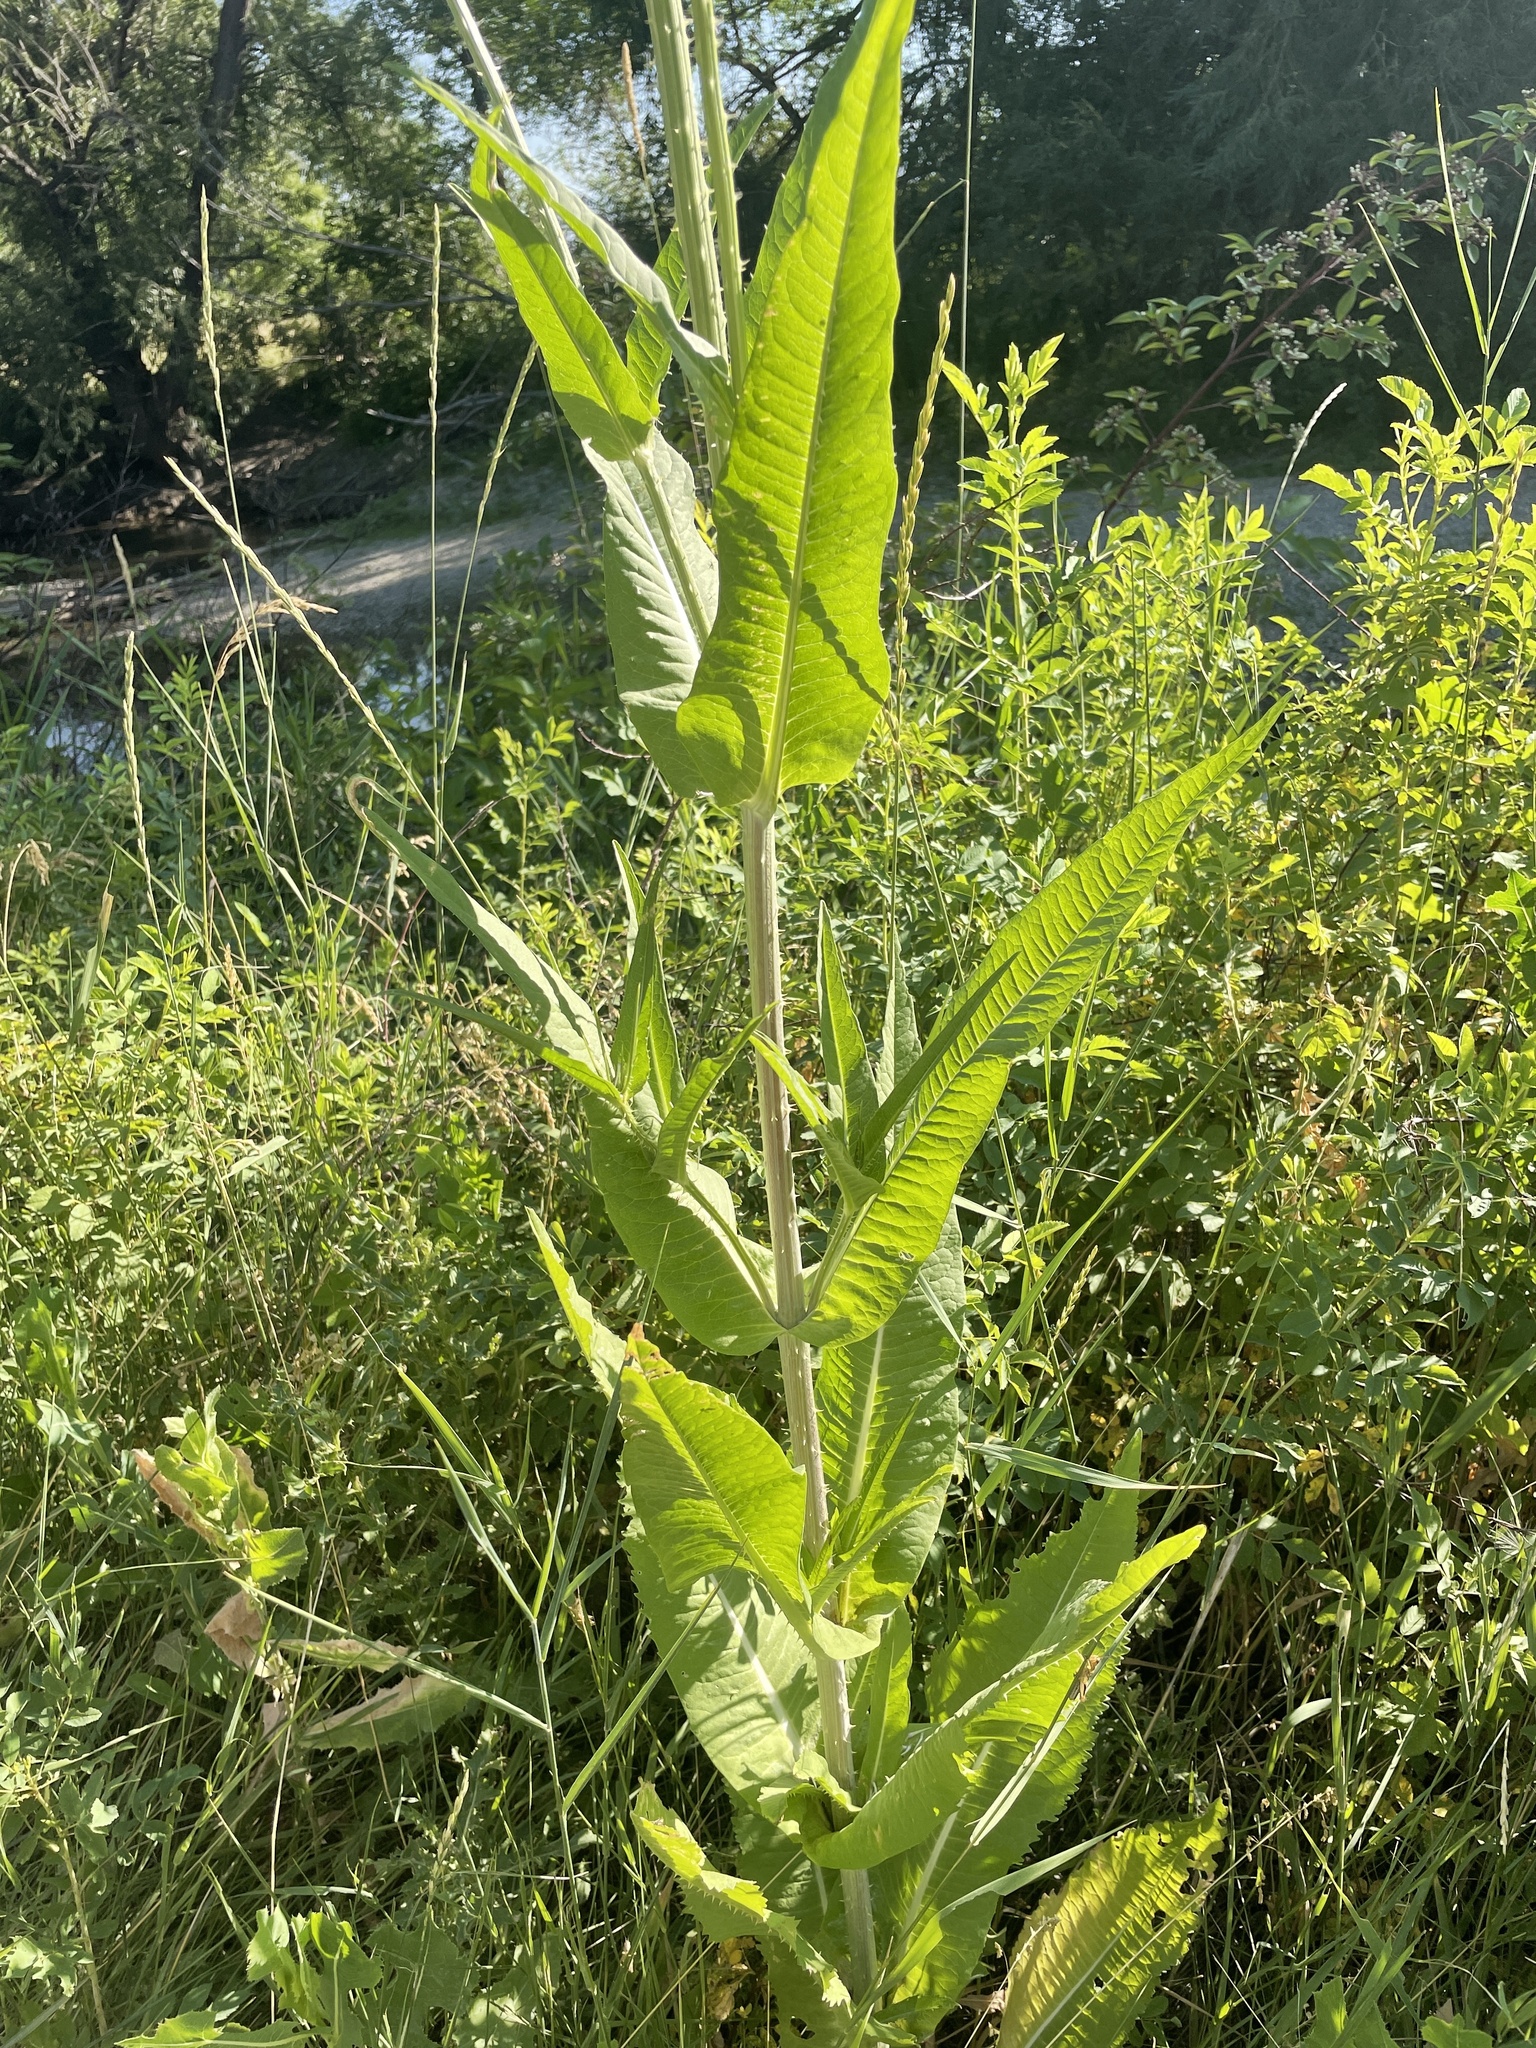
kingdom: Plantae
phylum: Tracheophyta
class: Magnoliopsida
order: Dipsacales
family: Caprifoliaceae
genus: Dipsacus
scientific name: Dipsacus fullonum
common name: Teasel
